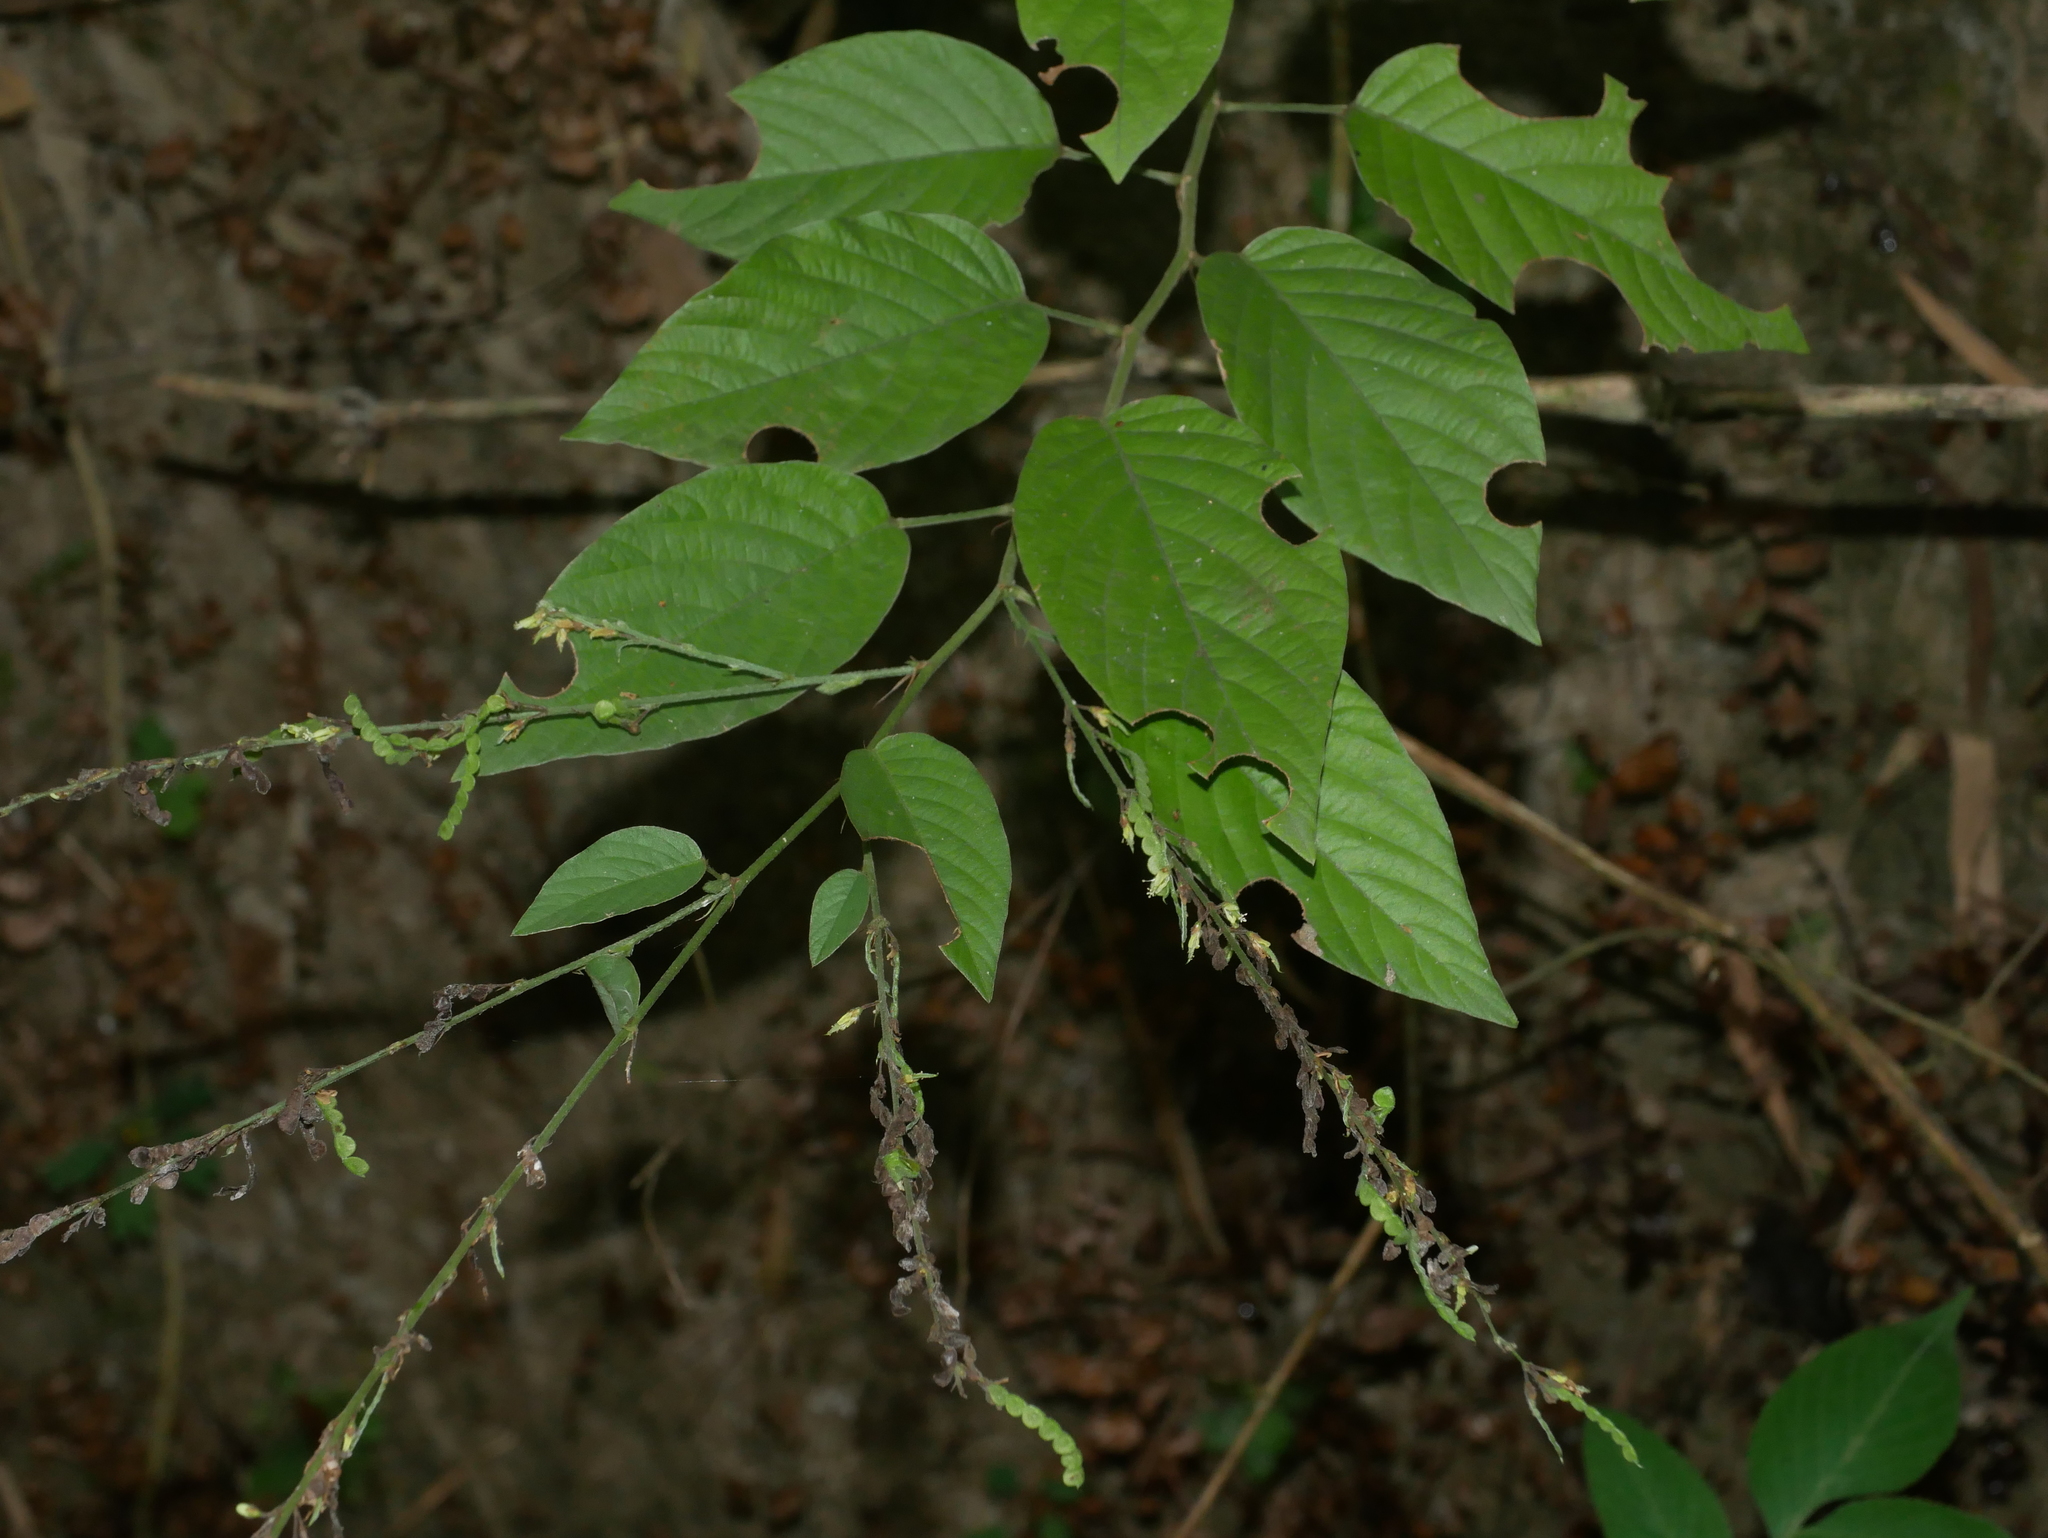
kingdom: Plantae
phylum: Tracheophyta
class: Magnoliopsida
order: Fabales
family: Fabaceae
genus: Pleurolobus
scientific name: Pleurolobus gangeticus
